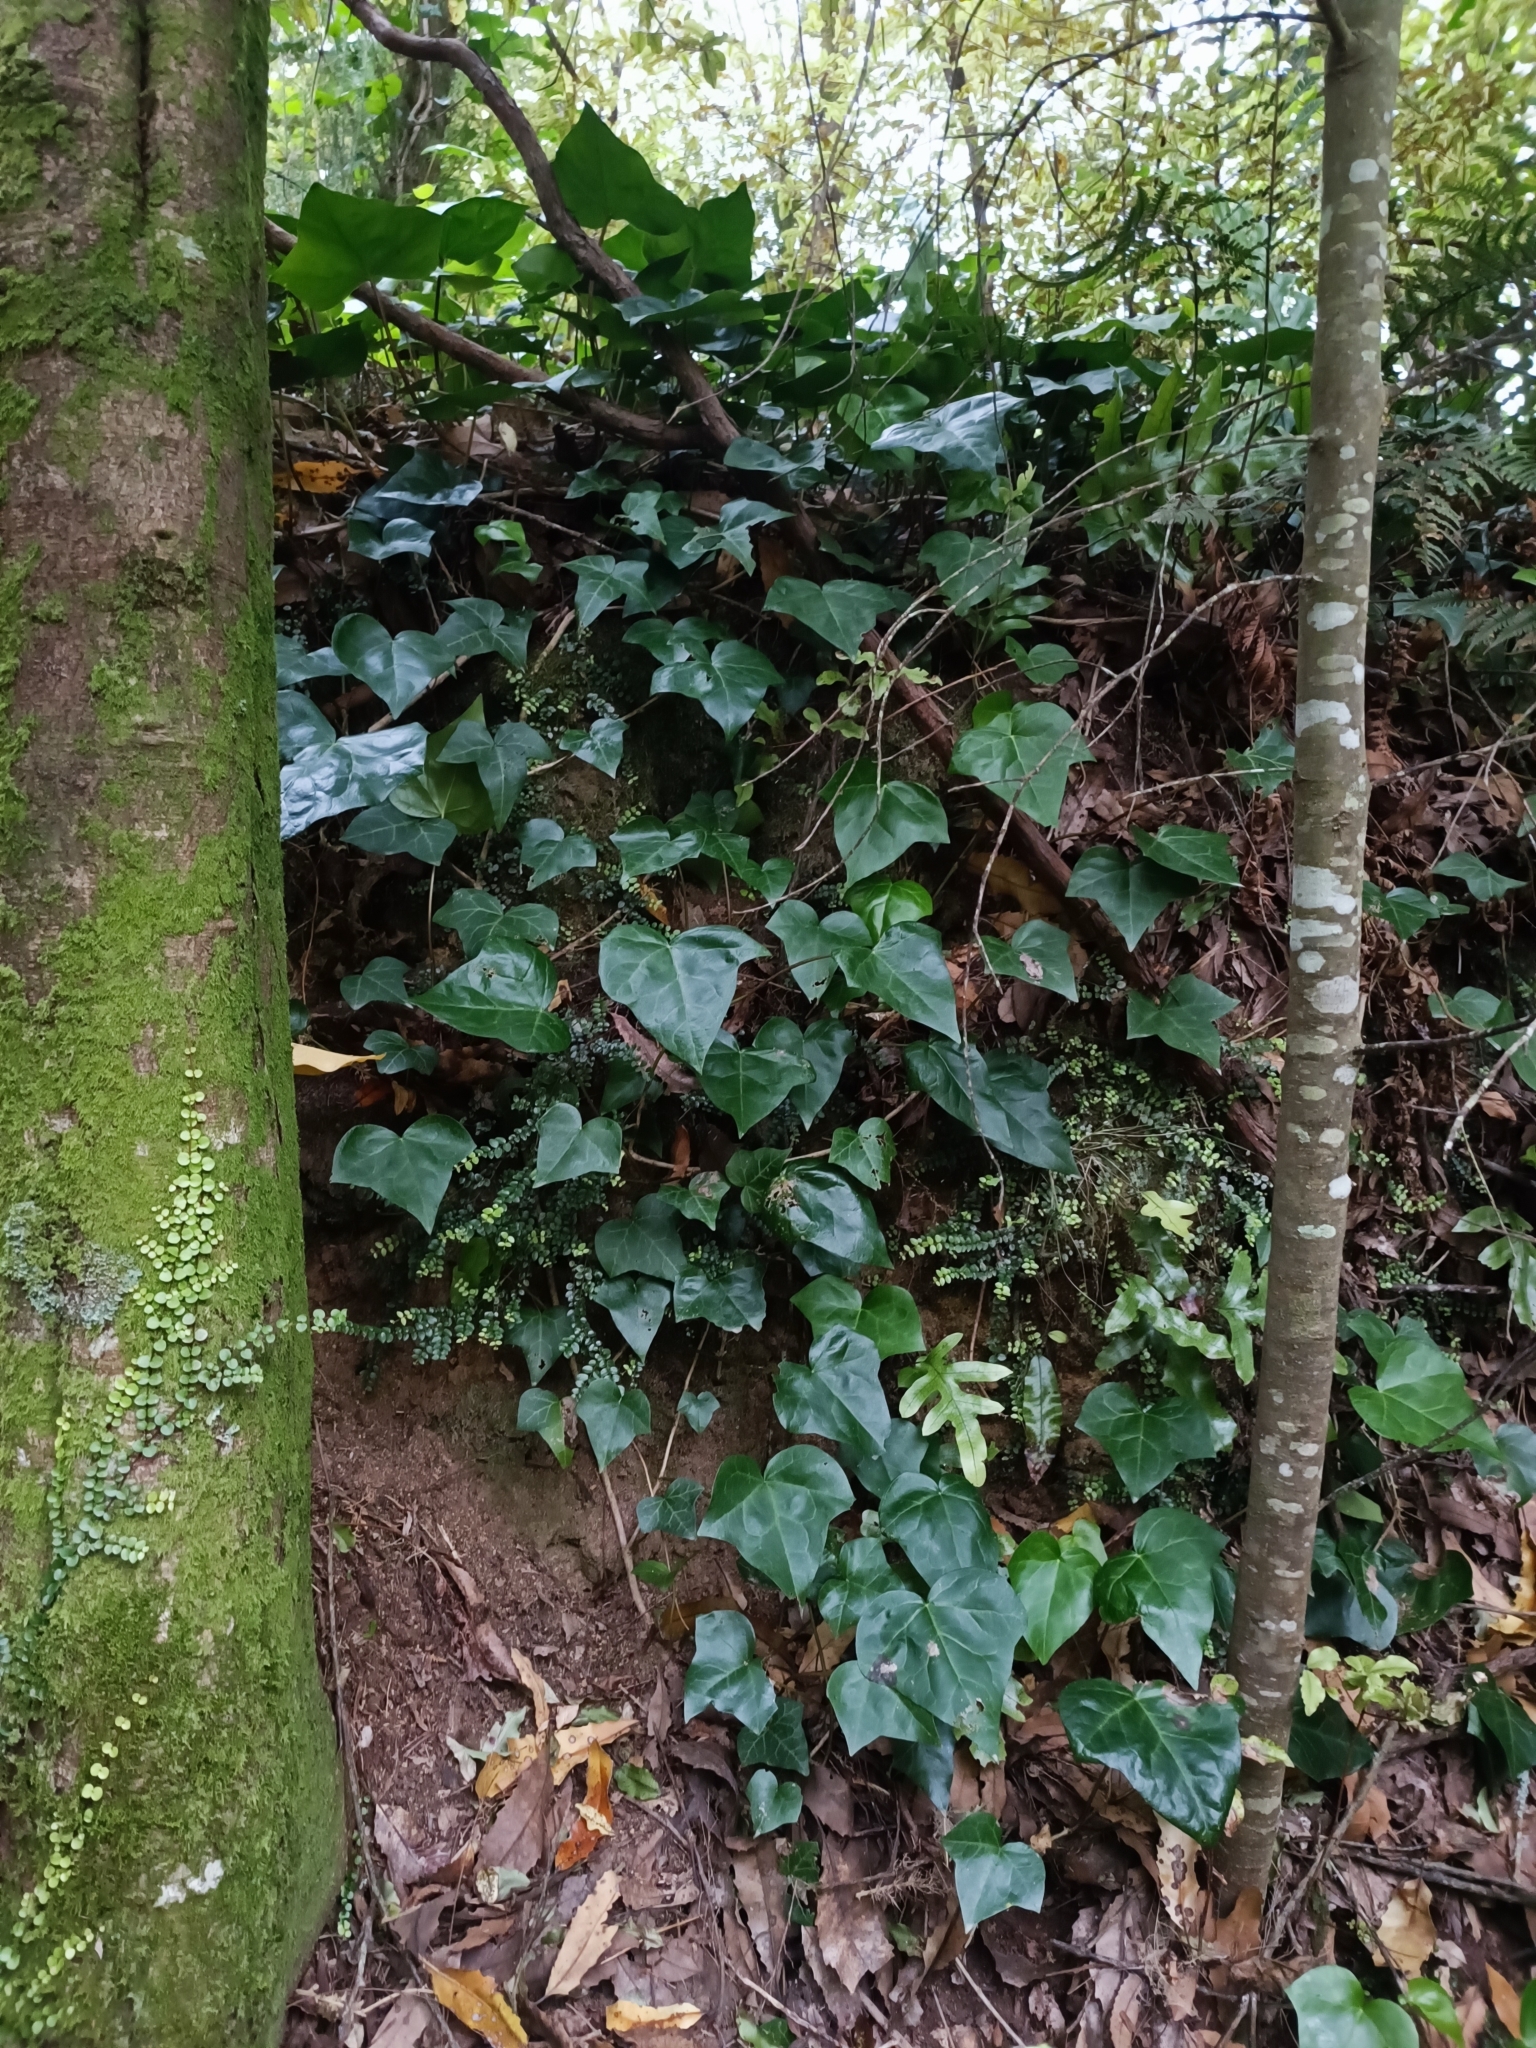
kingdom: Plantae
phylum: Tracheophyta
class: Magnoliopsida
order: Apiales
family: Araliaceae
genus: Hedera
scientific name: Hedera helix
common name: Ivy
